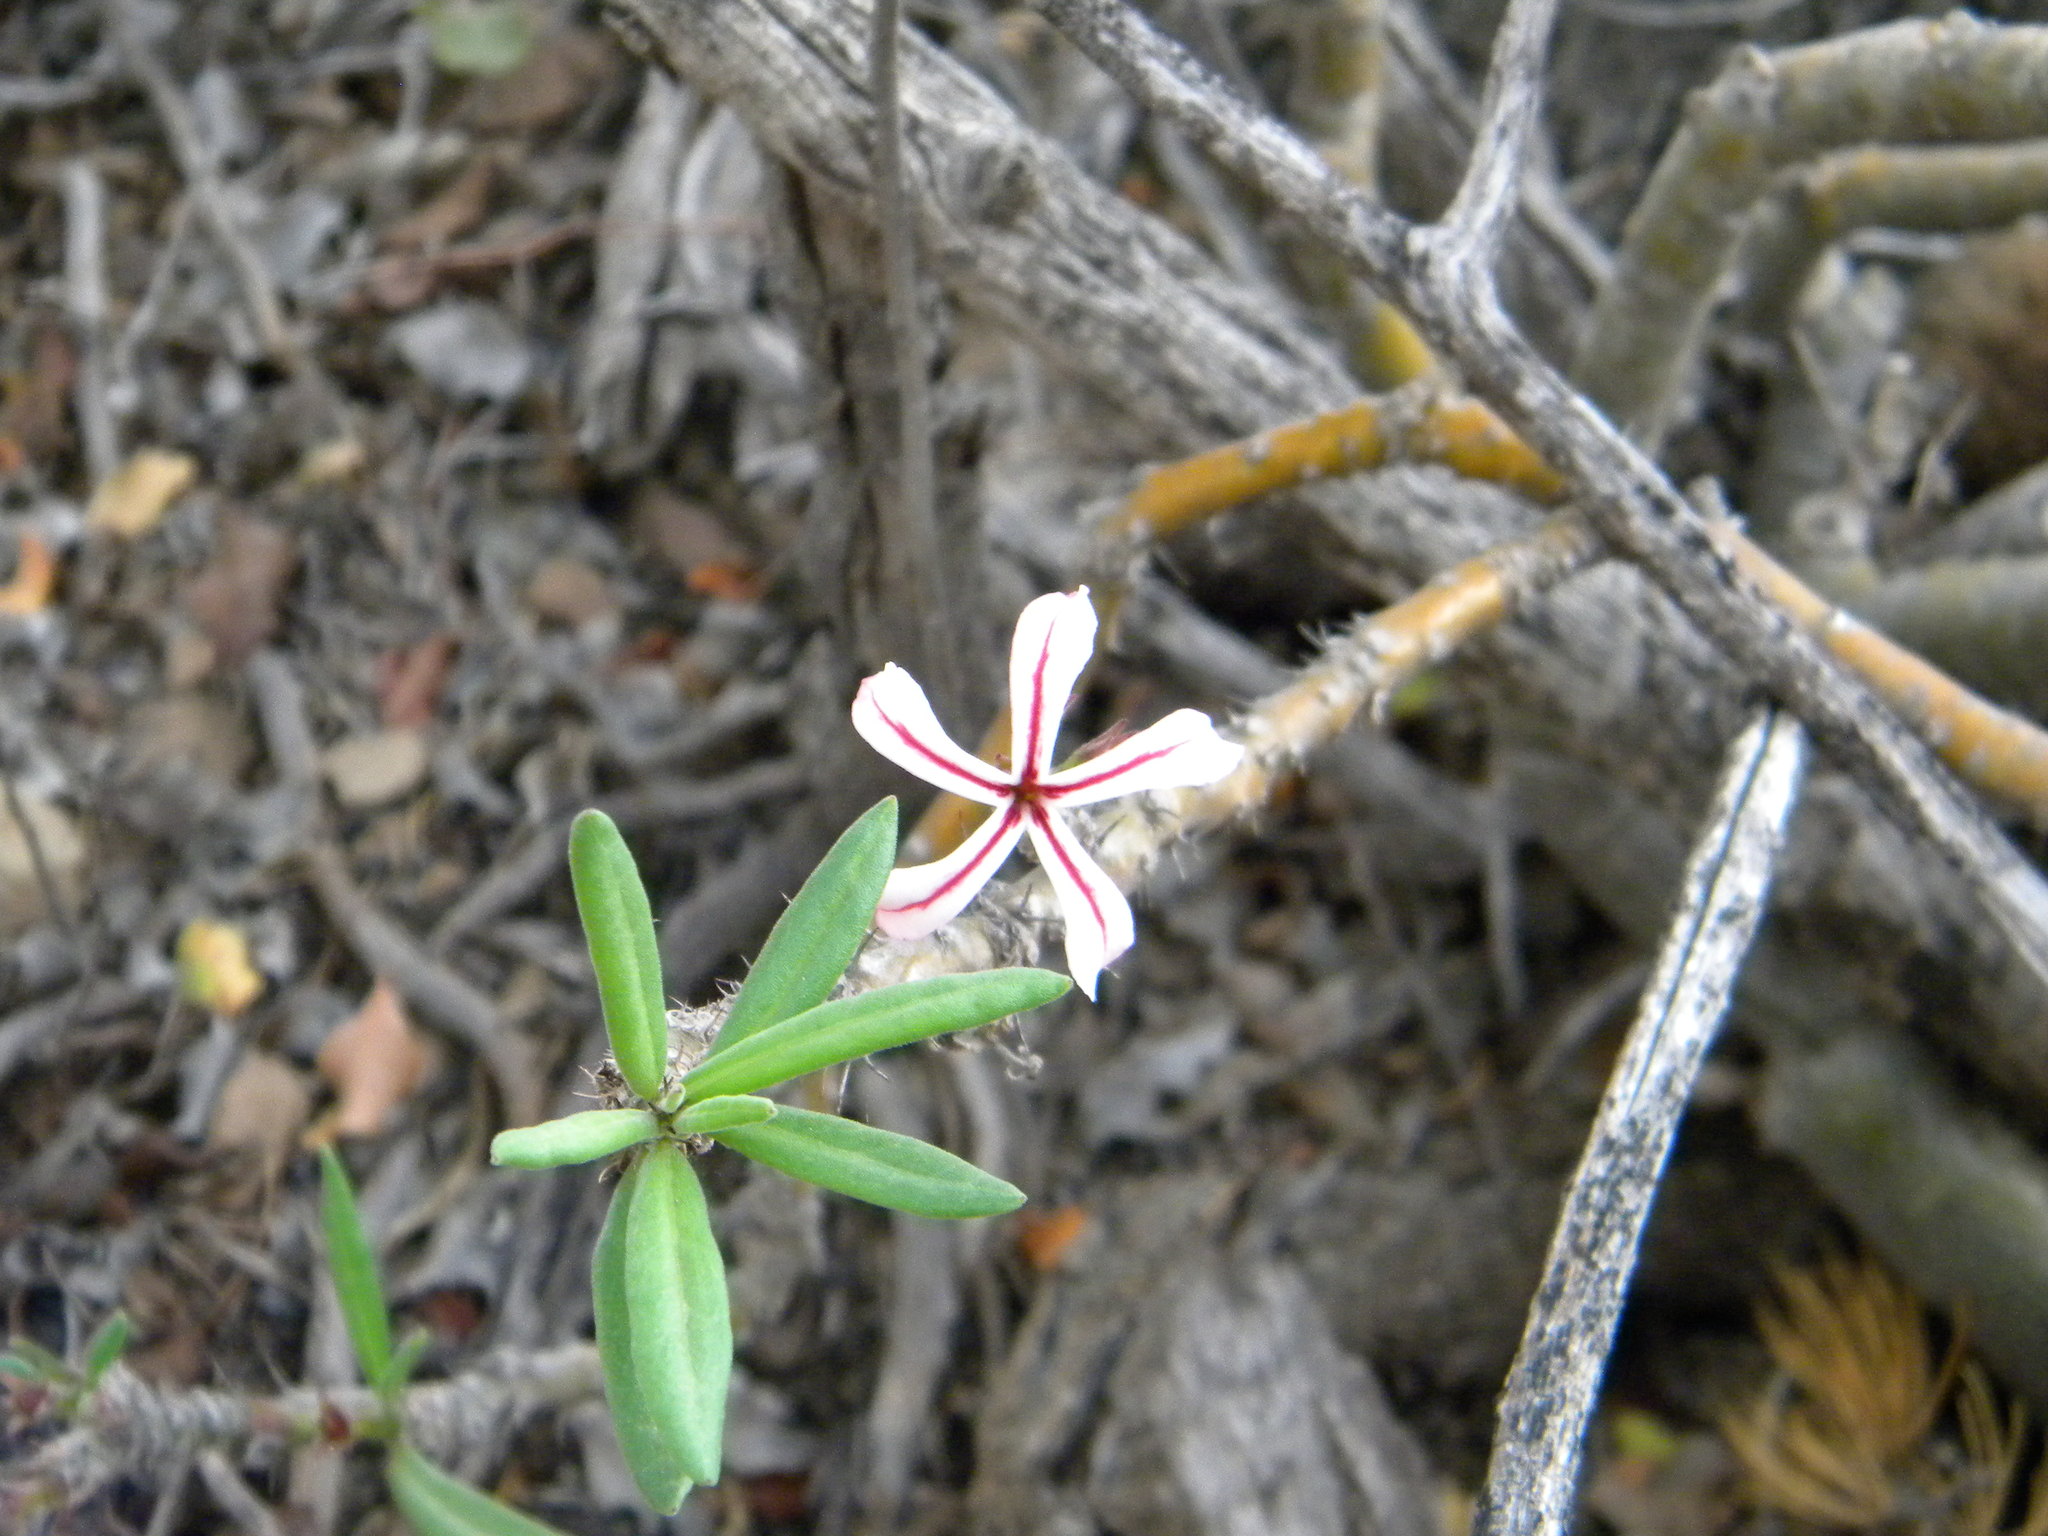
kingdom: Plantae
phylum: Tracheophyta
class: Magnoliopsida
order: Gentianales
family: Apocynaceae
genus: Pachypodium
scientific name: Pachypodium succulentum
